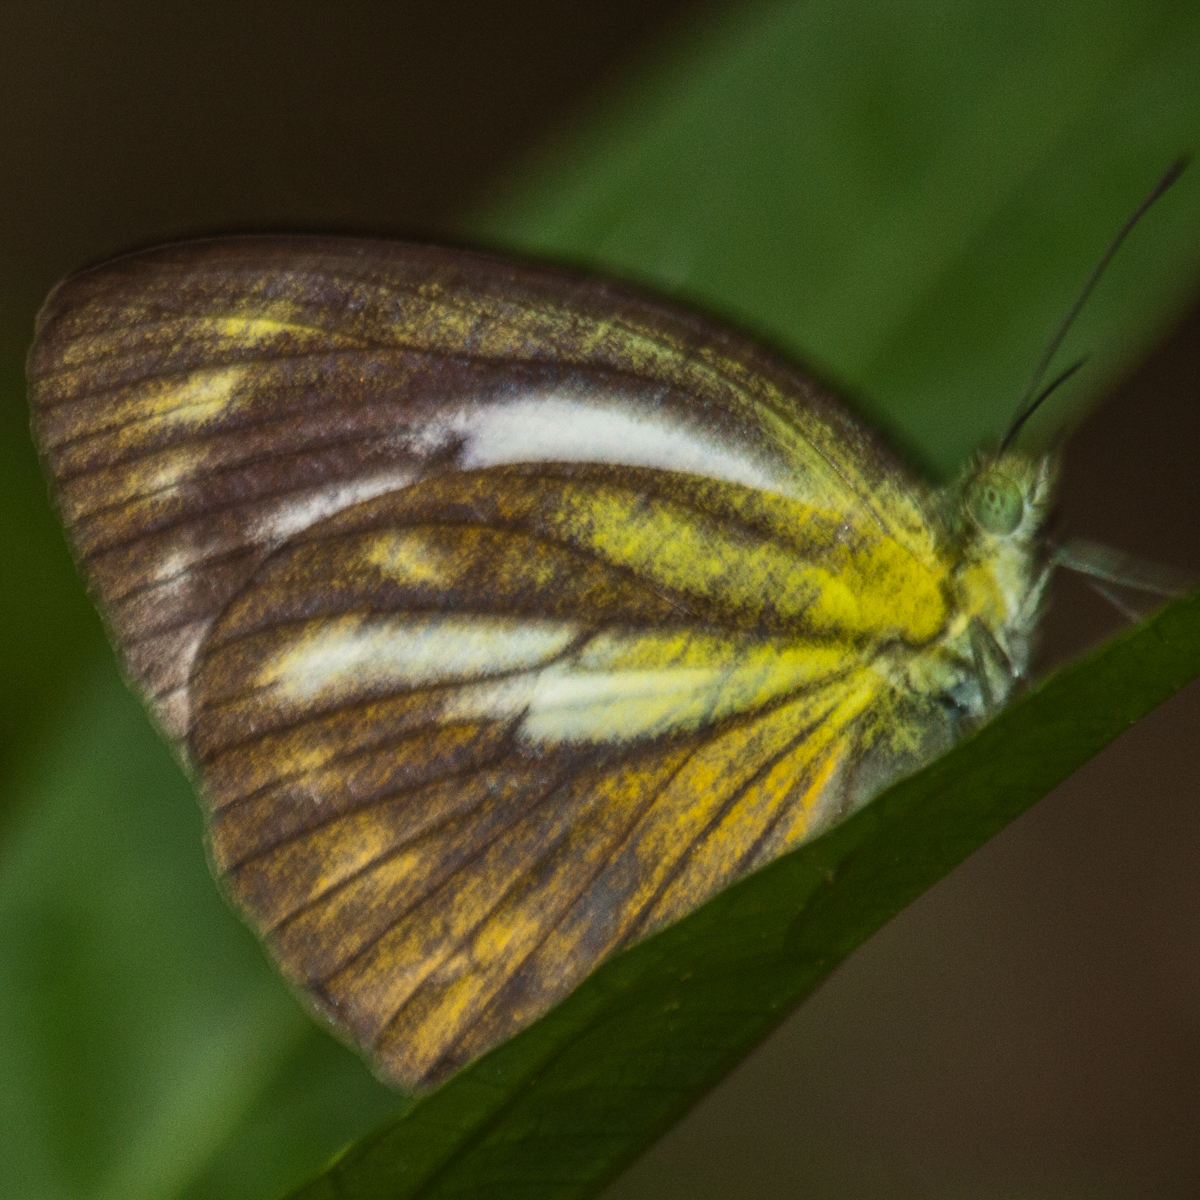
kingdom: Animalia
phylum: Arthropoda
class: Insecta
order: Lepidoptera
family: Pieridae
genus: Cepora
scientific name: Cepora nadina
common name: Lesser gull
